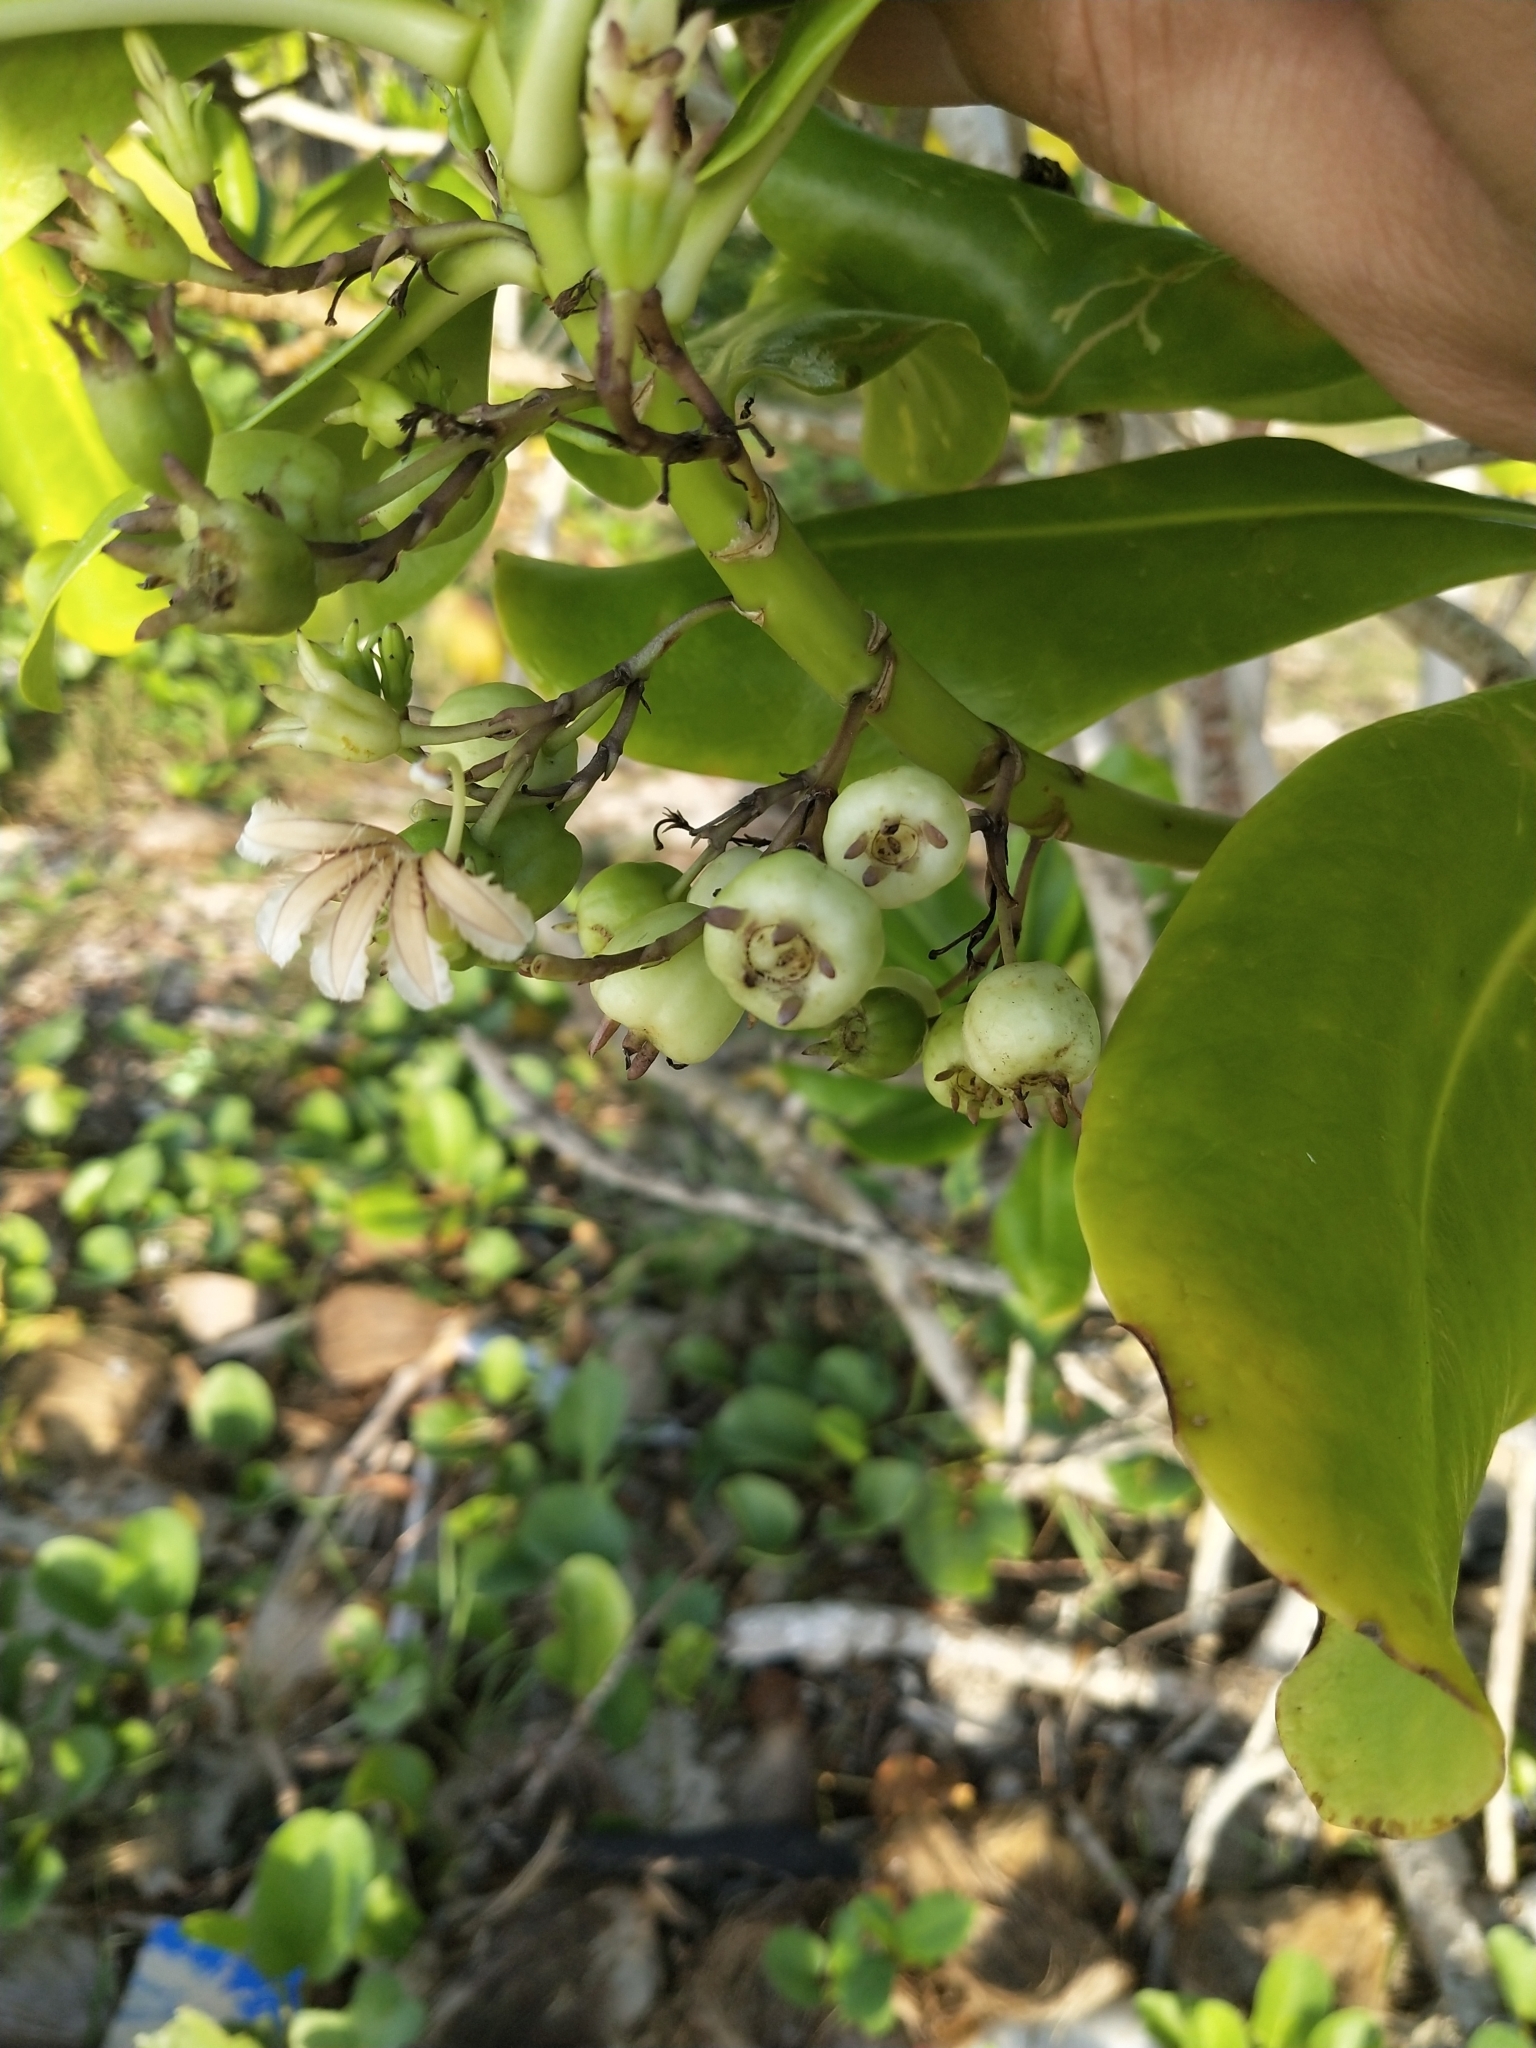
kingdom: Plantae
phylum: Tracheophyta
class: Magnoliopsida
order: Asterales
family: Goodeniaceae
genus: Scaevola
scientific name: Scaevola taccada
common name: Sea lettucetree
